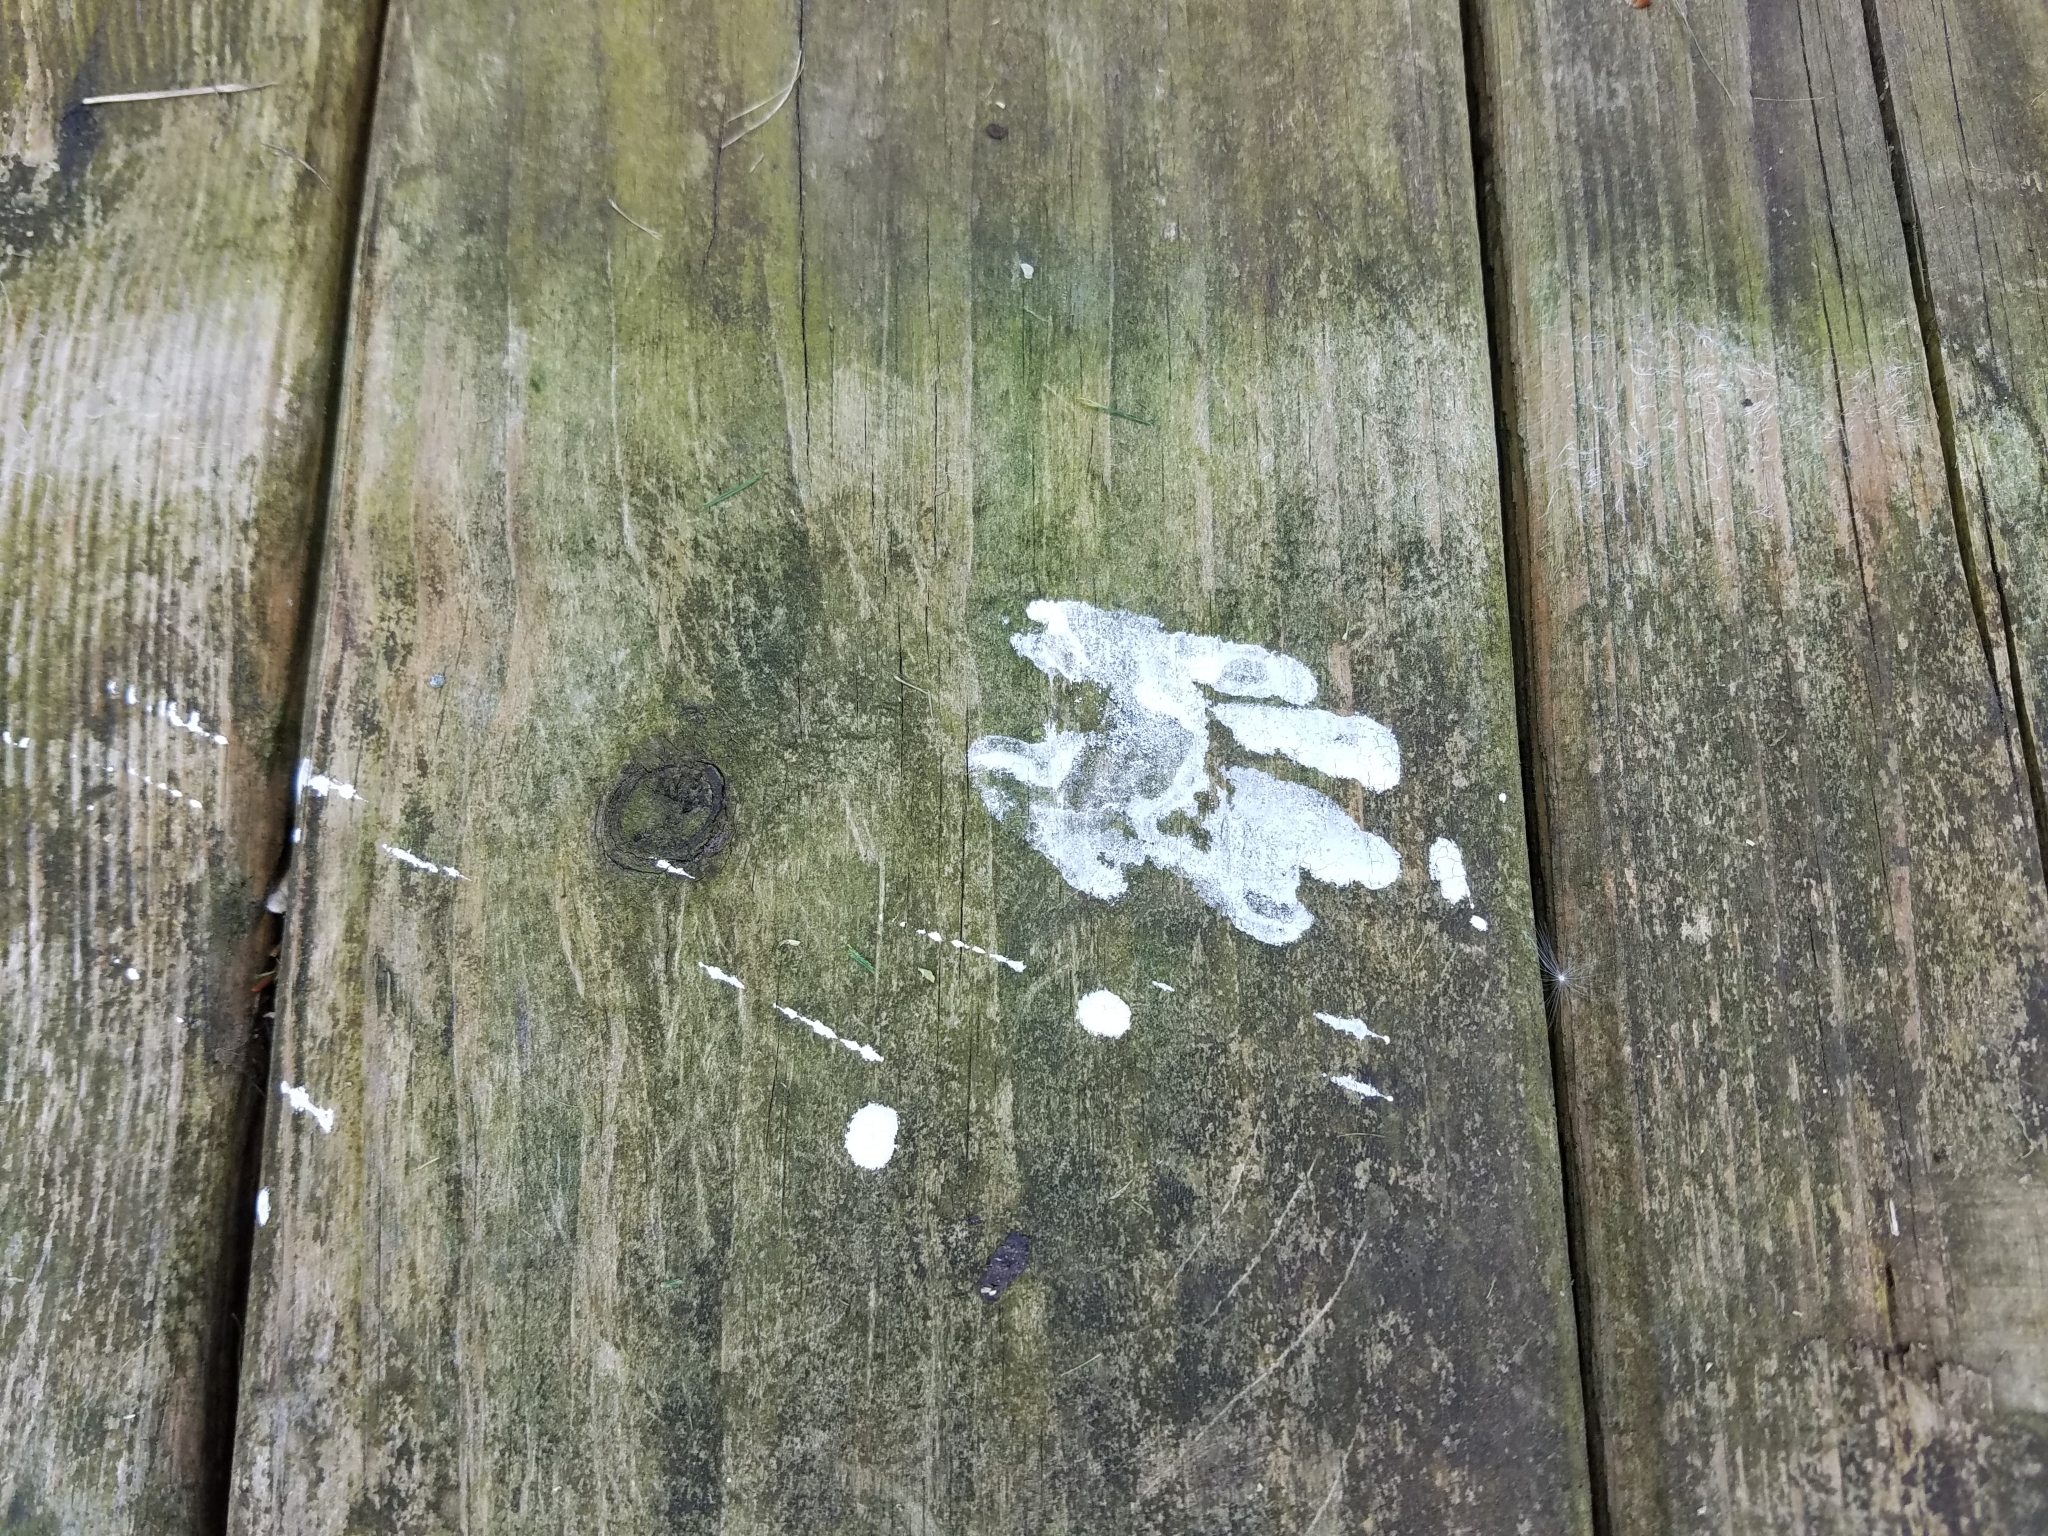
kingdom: Animalia
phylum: Chordata
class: Mammalia
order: Carnivora
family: Procyonidae
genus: Procyon
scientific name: Procyon lotor
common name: Raccoon
